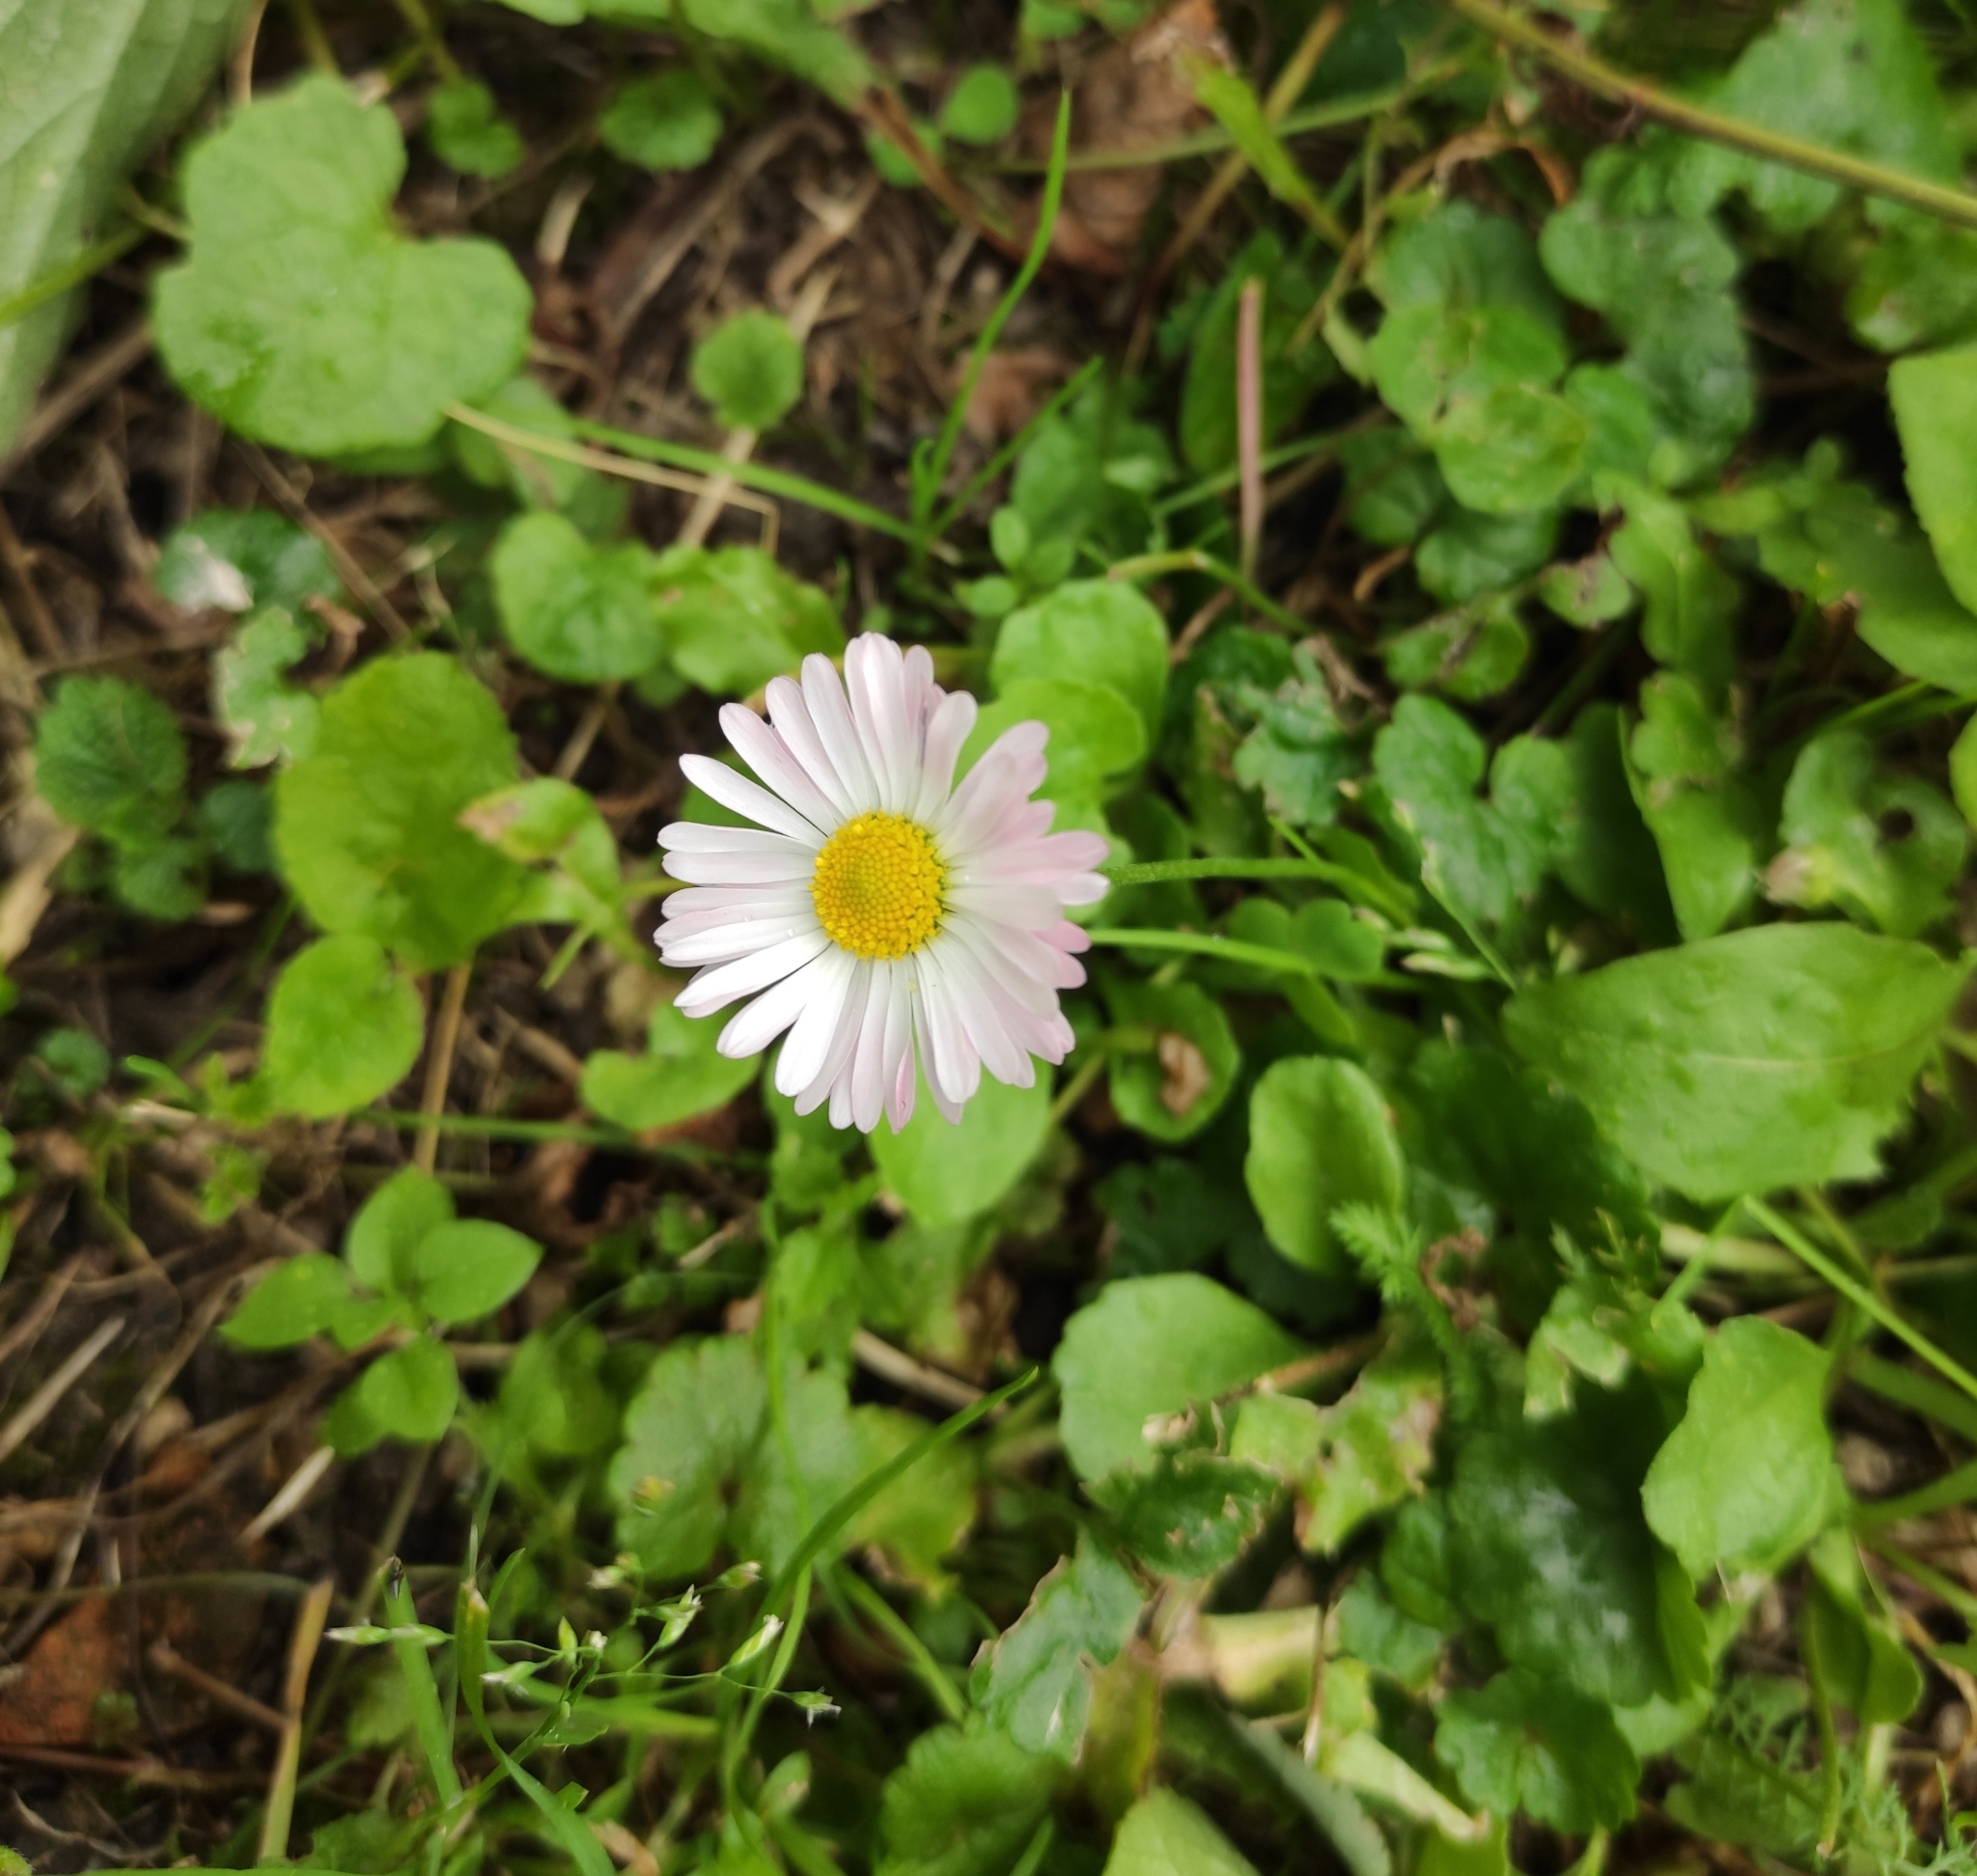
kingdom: Plantae
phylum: Tracheophyta
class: Magnoliopsida
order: Asterales
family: Asteraceae
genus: Bellis
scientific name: Bellis perennis
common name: Lawndaisy
